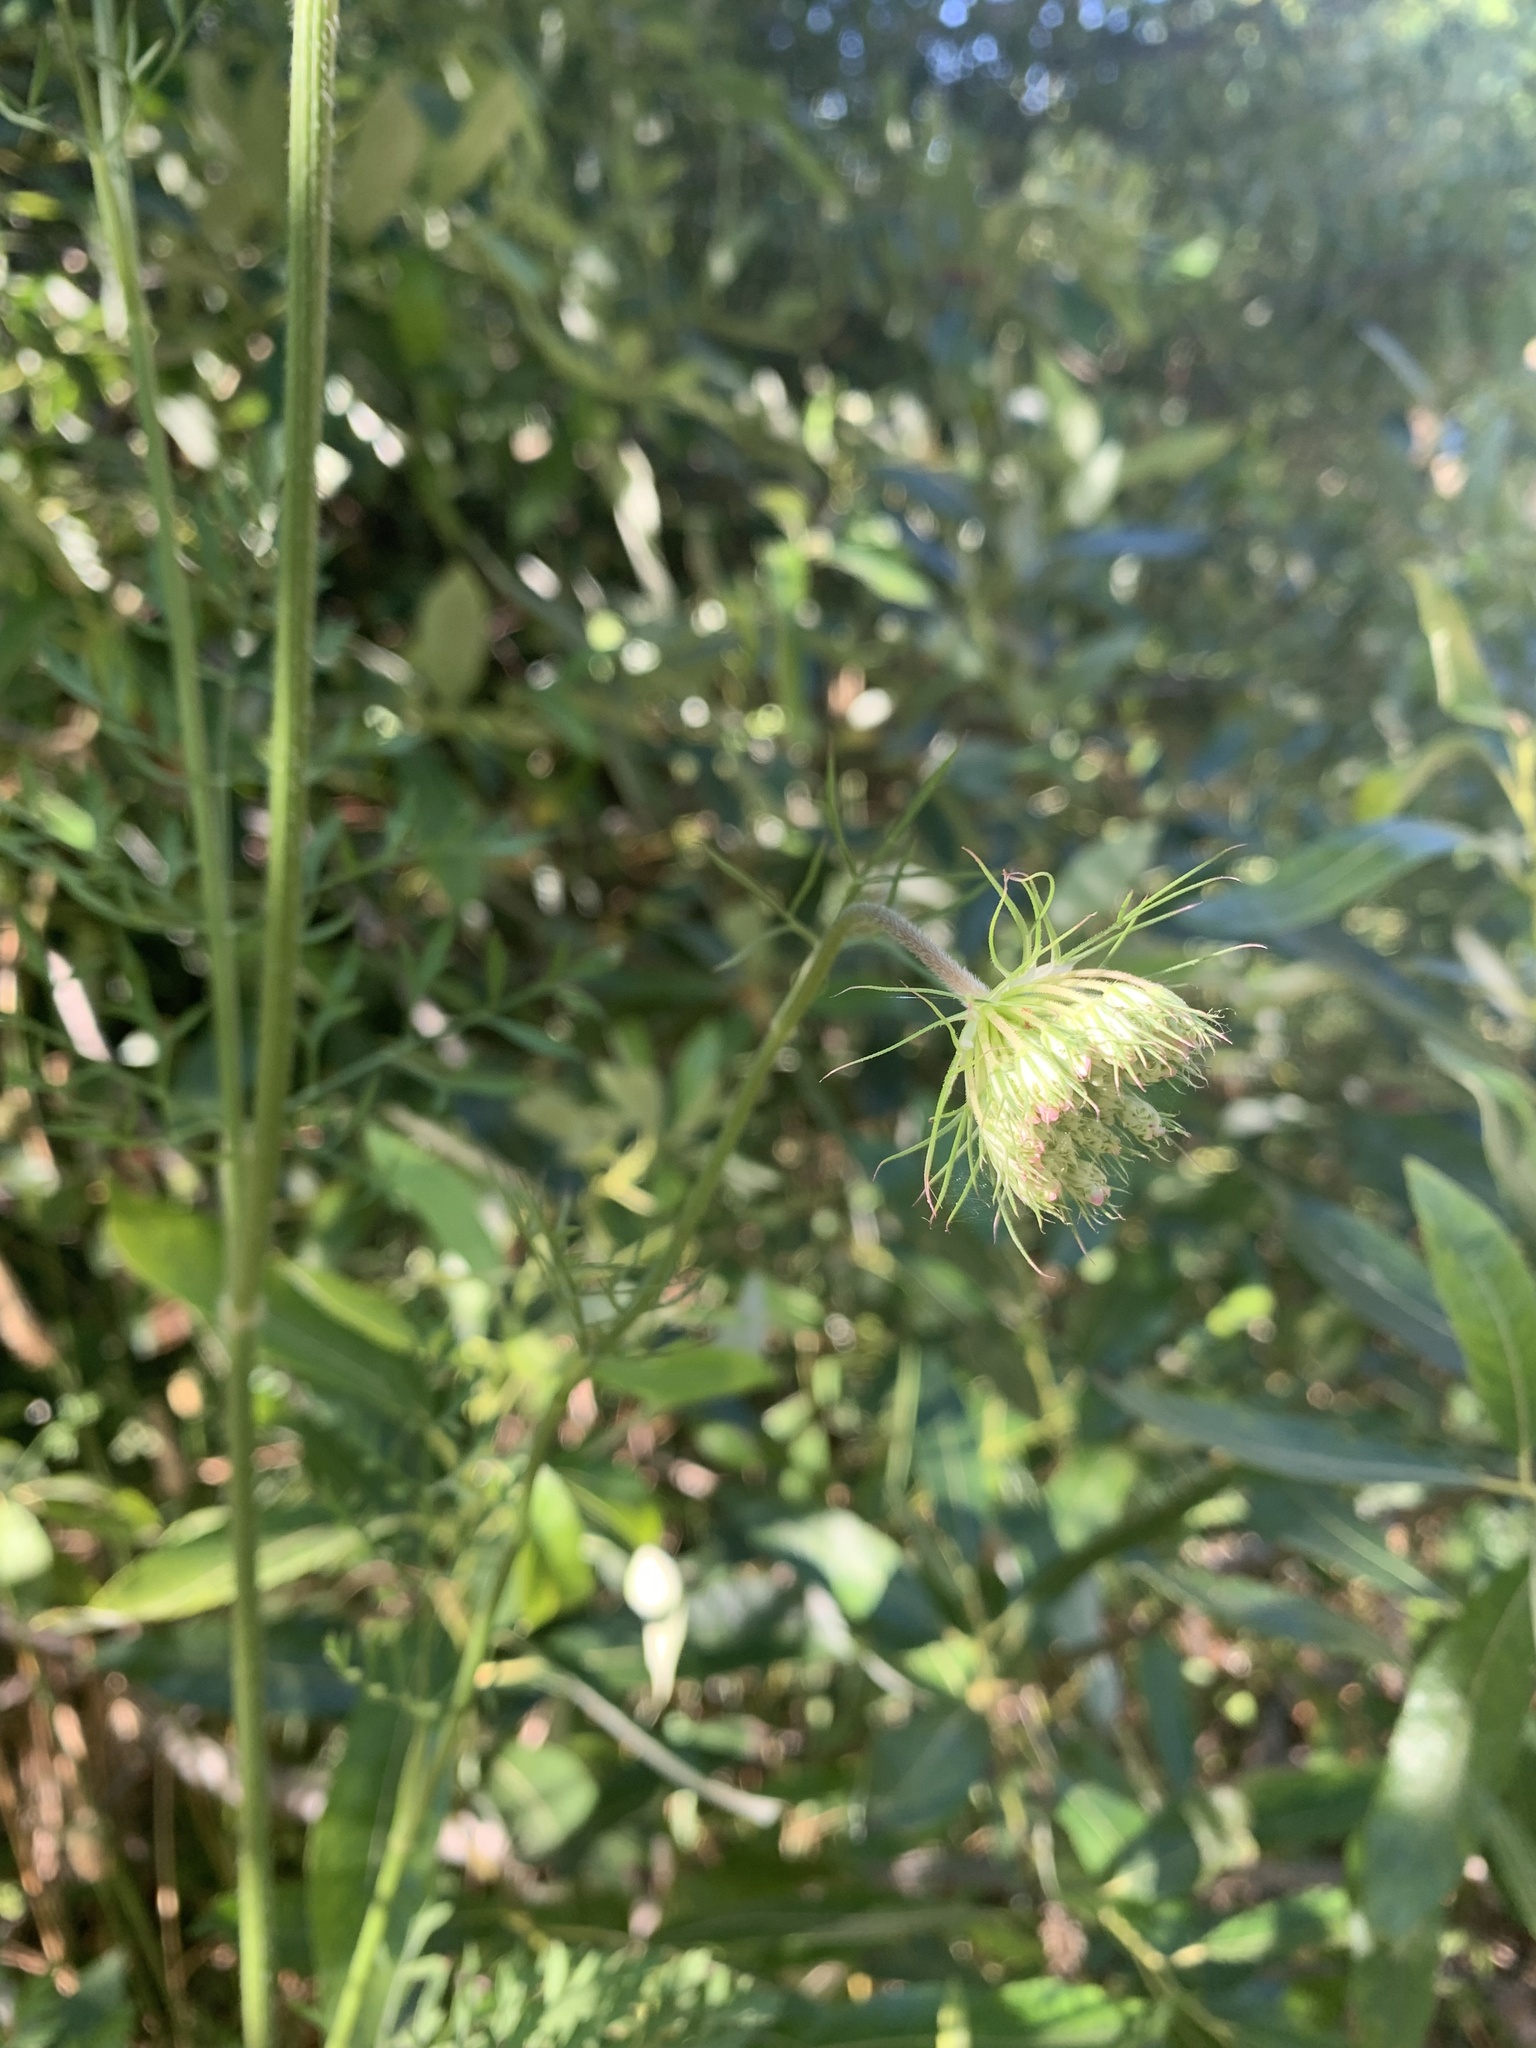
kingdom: Plantae
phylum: Tracheophyta
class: Magnoliopsida
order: Apiales
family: Apiaceae
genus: Daucus
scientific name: Daucus carota
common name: Wild carrot
